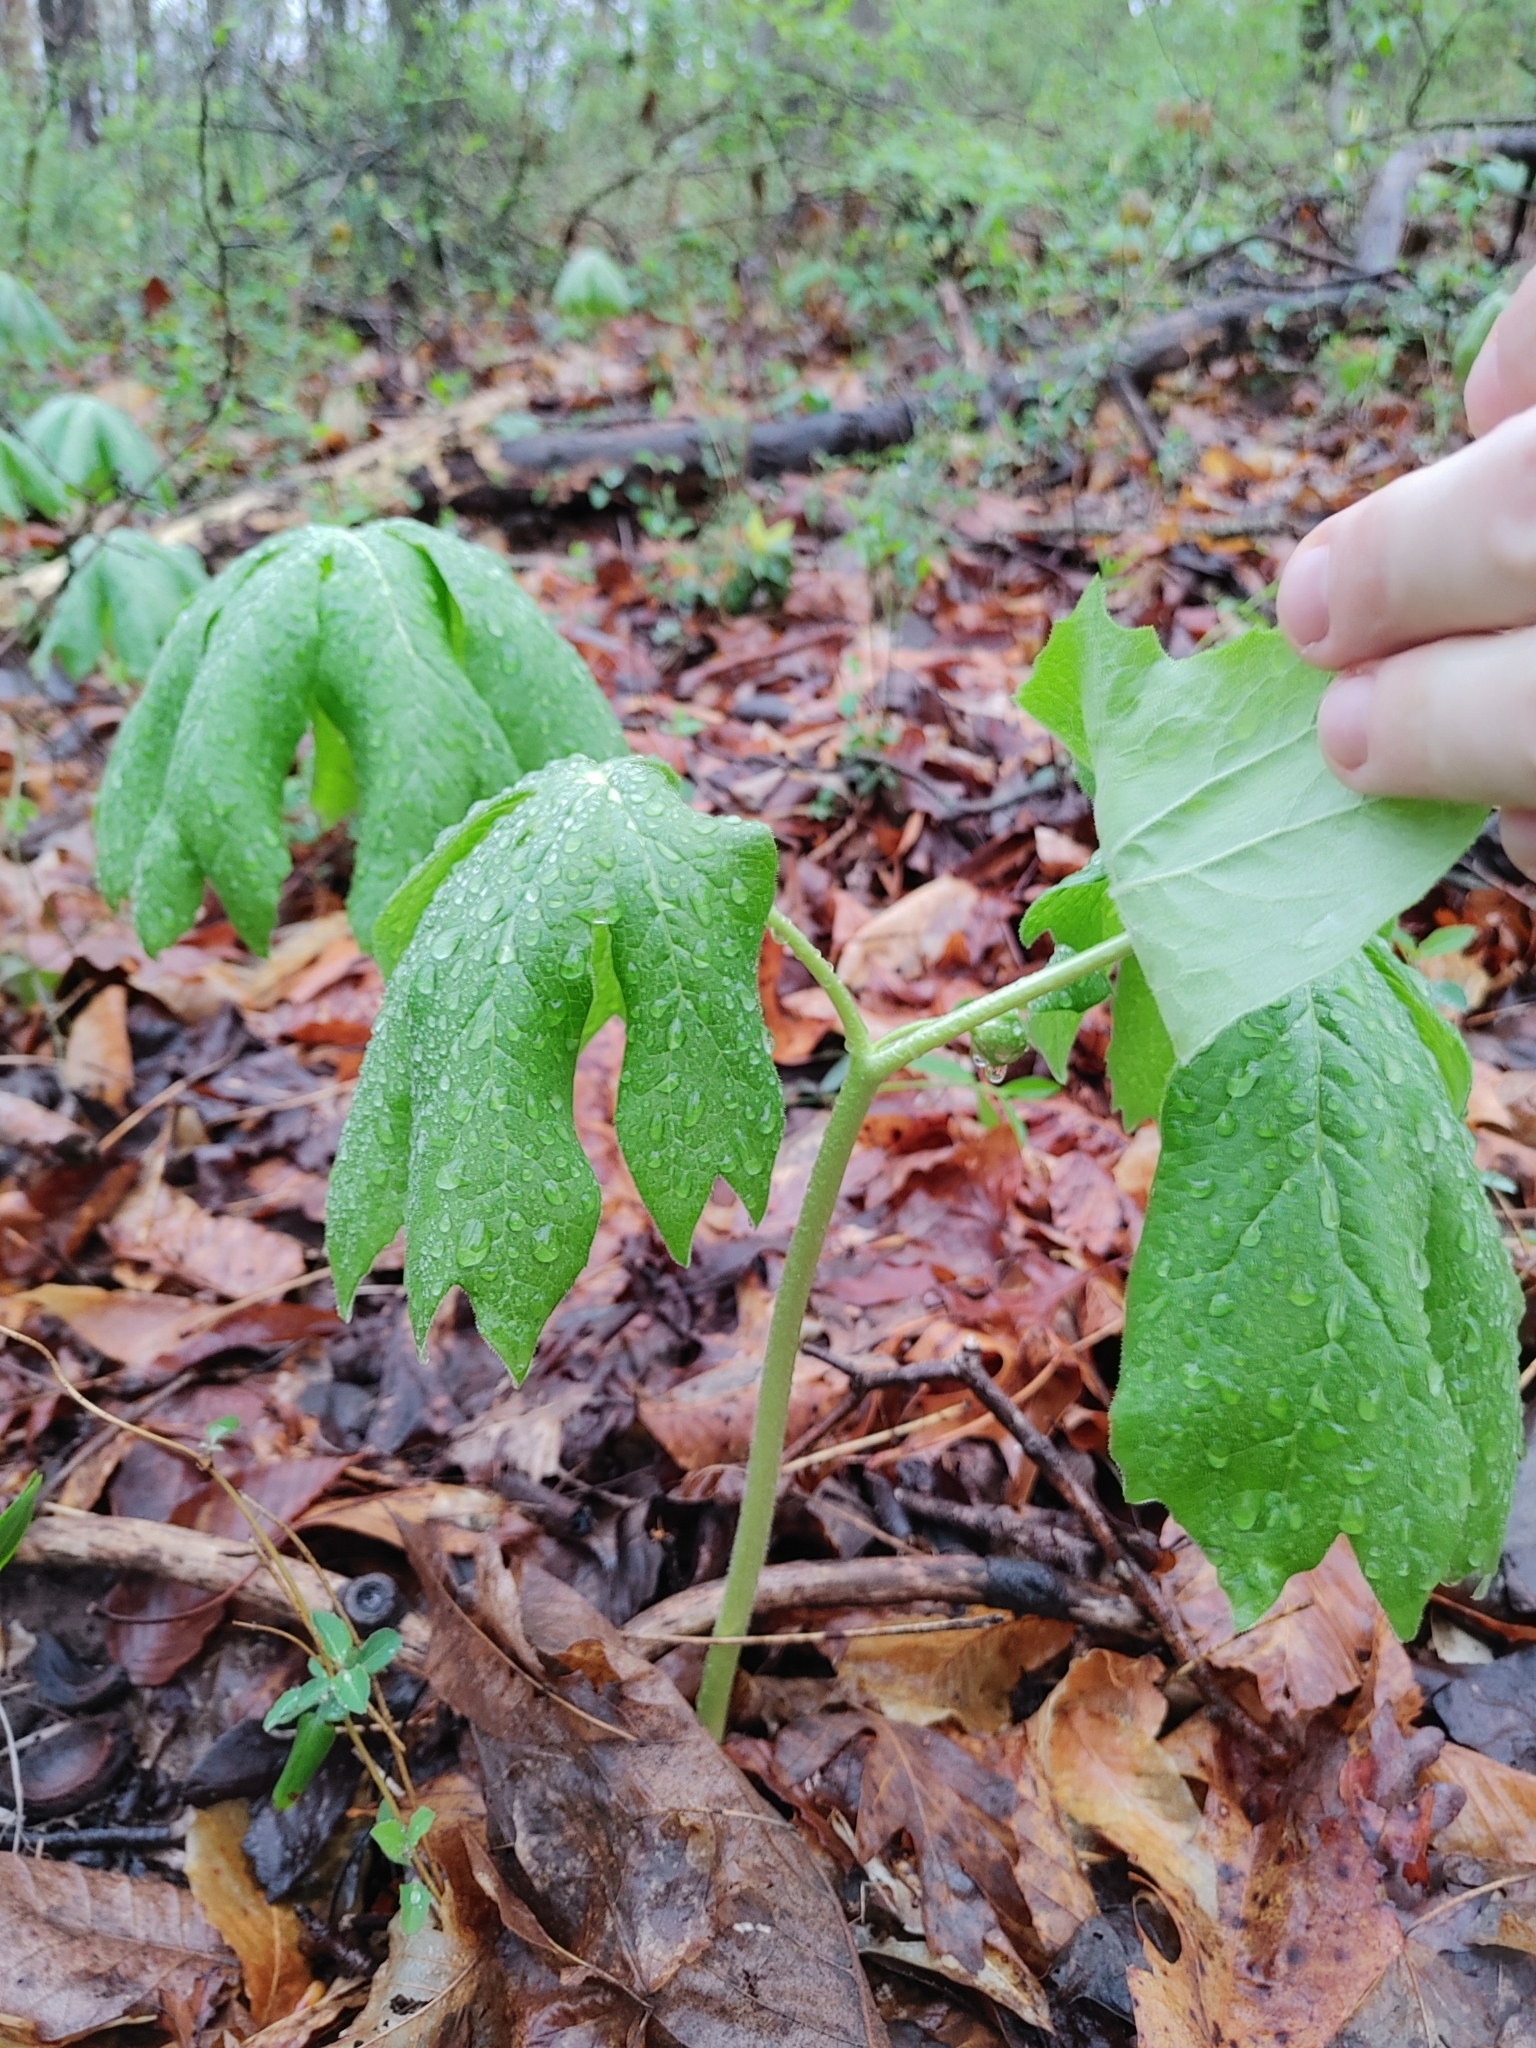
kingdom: Plantae
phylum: Tracheophyta
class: Magnoliopsida
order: Ranunculales
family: Berberidaceae
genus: Podophyllum
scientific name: Podophyllum peltatum
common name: Wild mandrake
